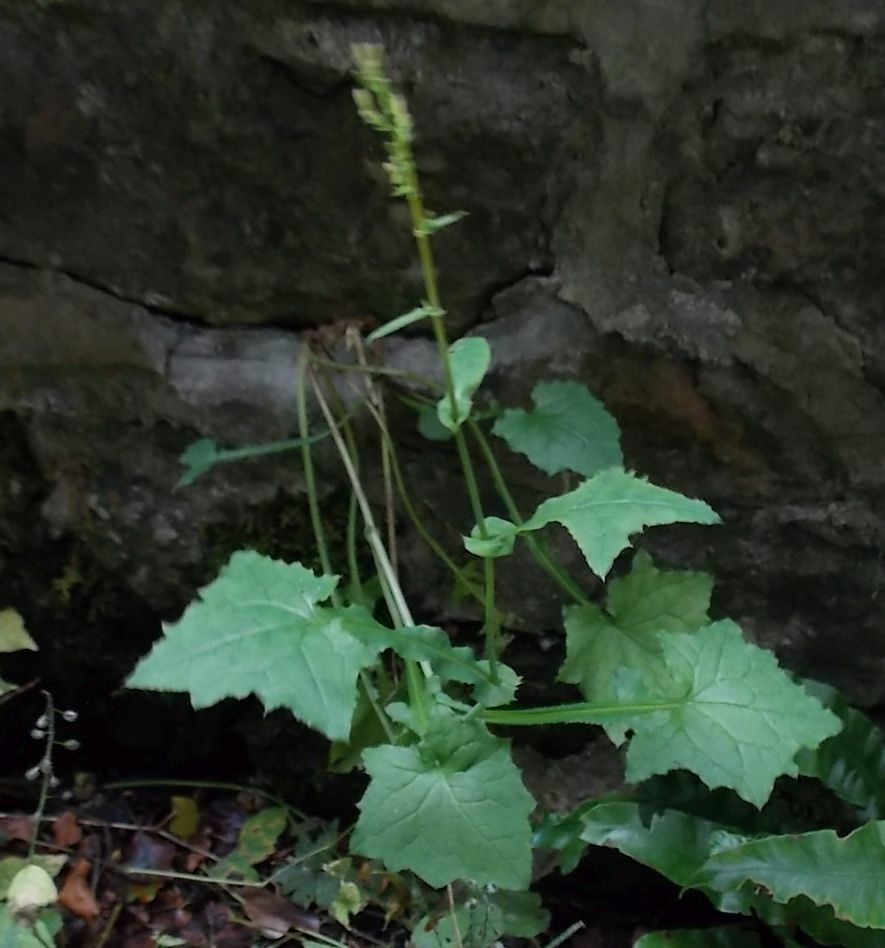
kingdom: Plantae
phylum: Tracheophyta
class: Magnoliopsida
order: Asterales
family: Asteraceae
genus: Mycelis
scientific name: Mycelis muralis
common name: Wall lettuce
